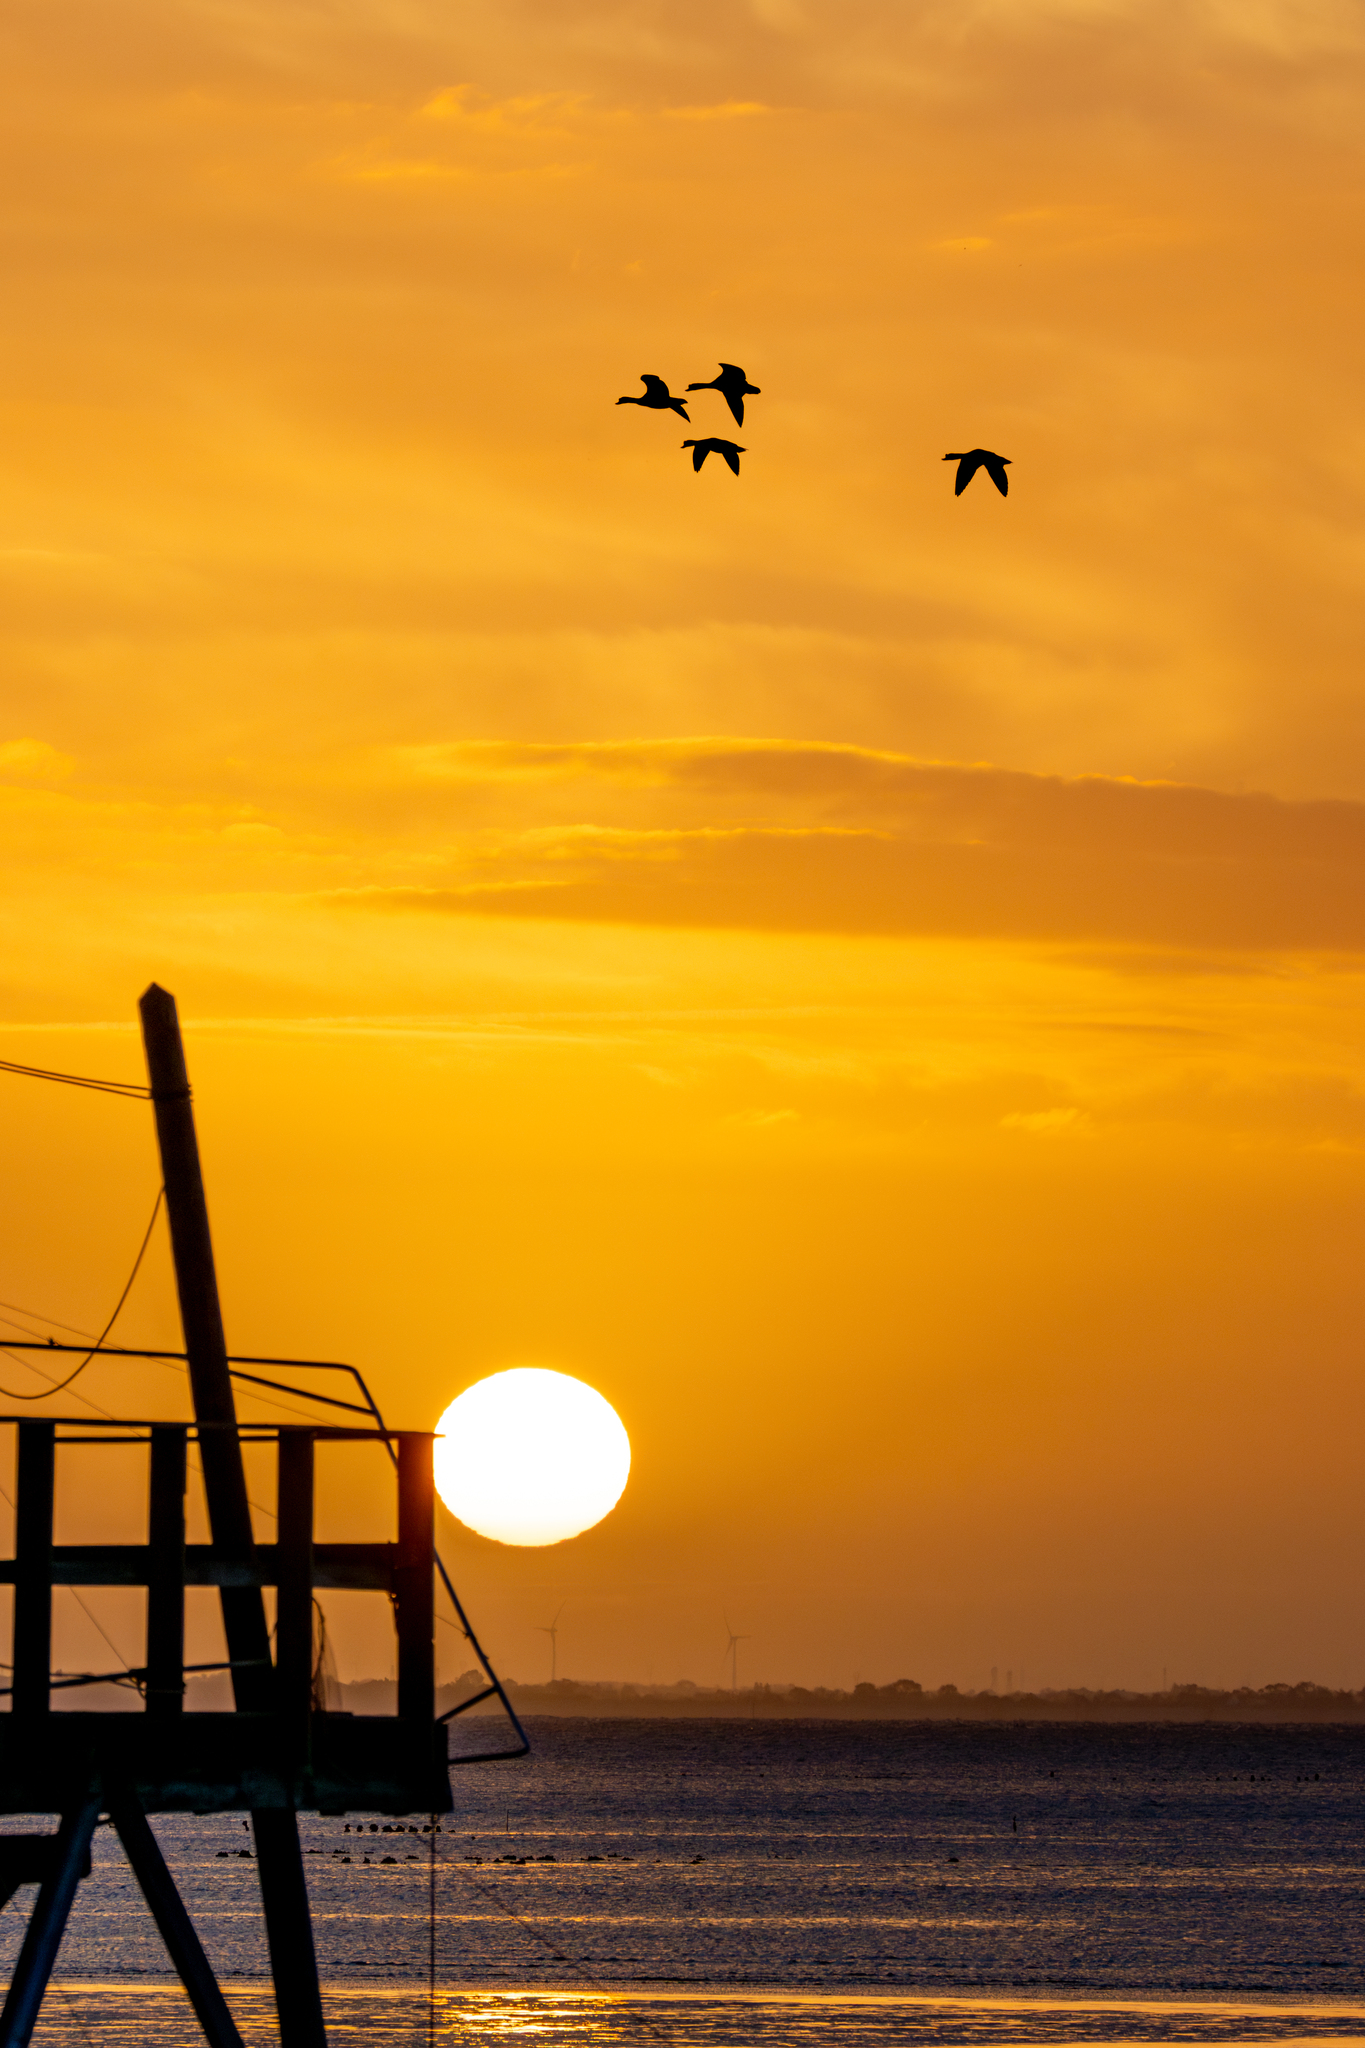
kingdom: Animalia
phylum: Chordata
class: Aves
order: Anseriformes
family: Anatidae
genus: Tadorna
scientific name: Tadorna tadorna
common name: Common shelduck
